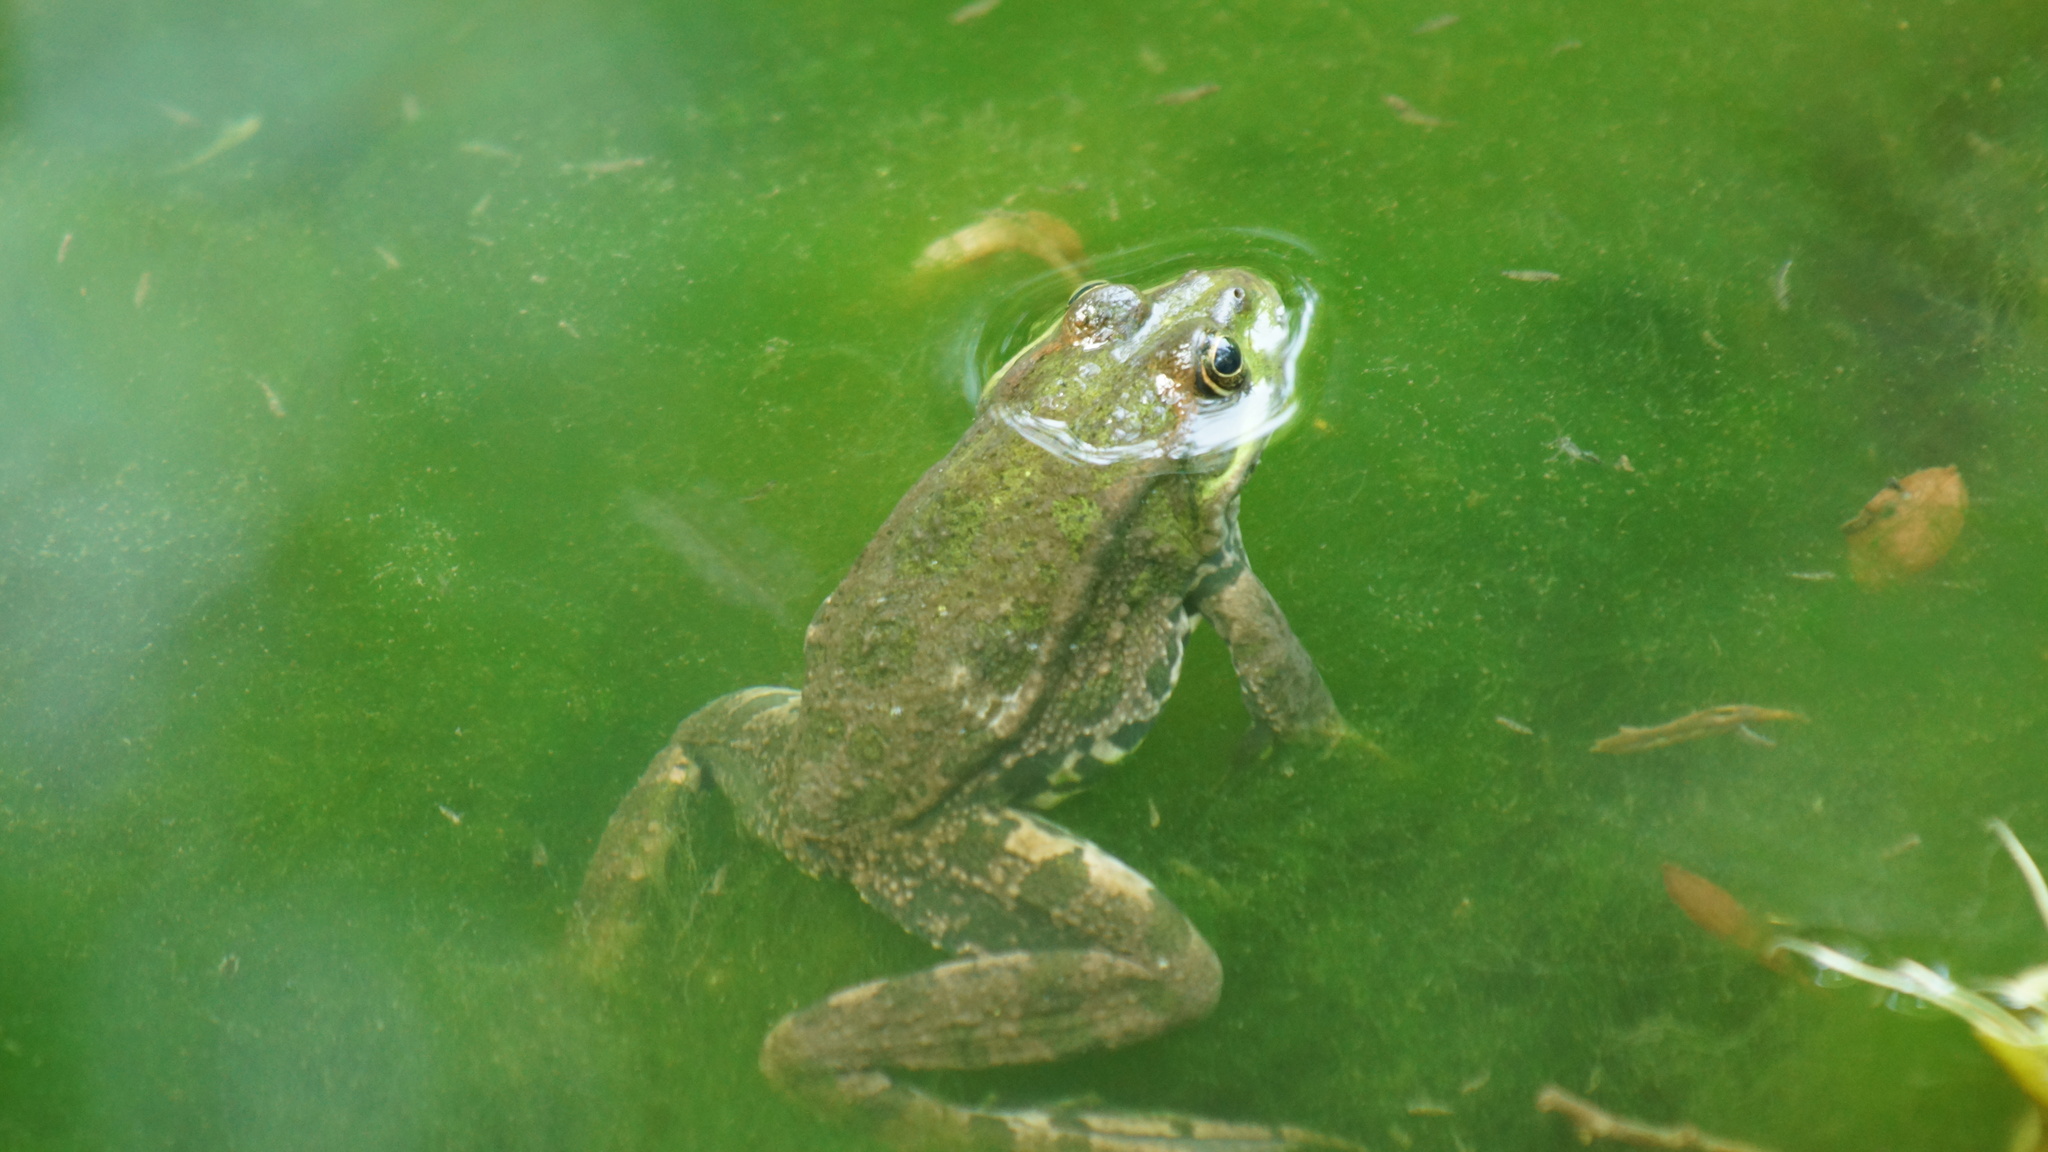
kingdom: Animalia
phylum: Chordata
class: Amphibia
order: Anura
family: Ranidae
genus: Pelophylax
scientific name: Pelophylax ridibundus
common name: Marsh frog
